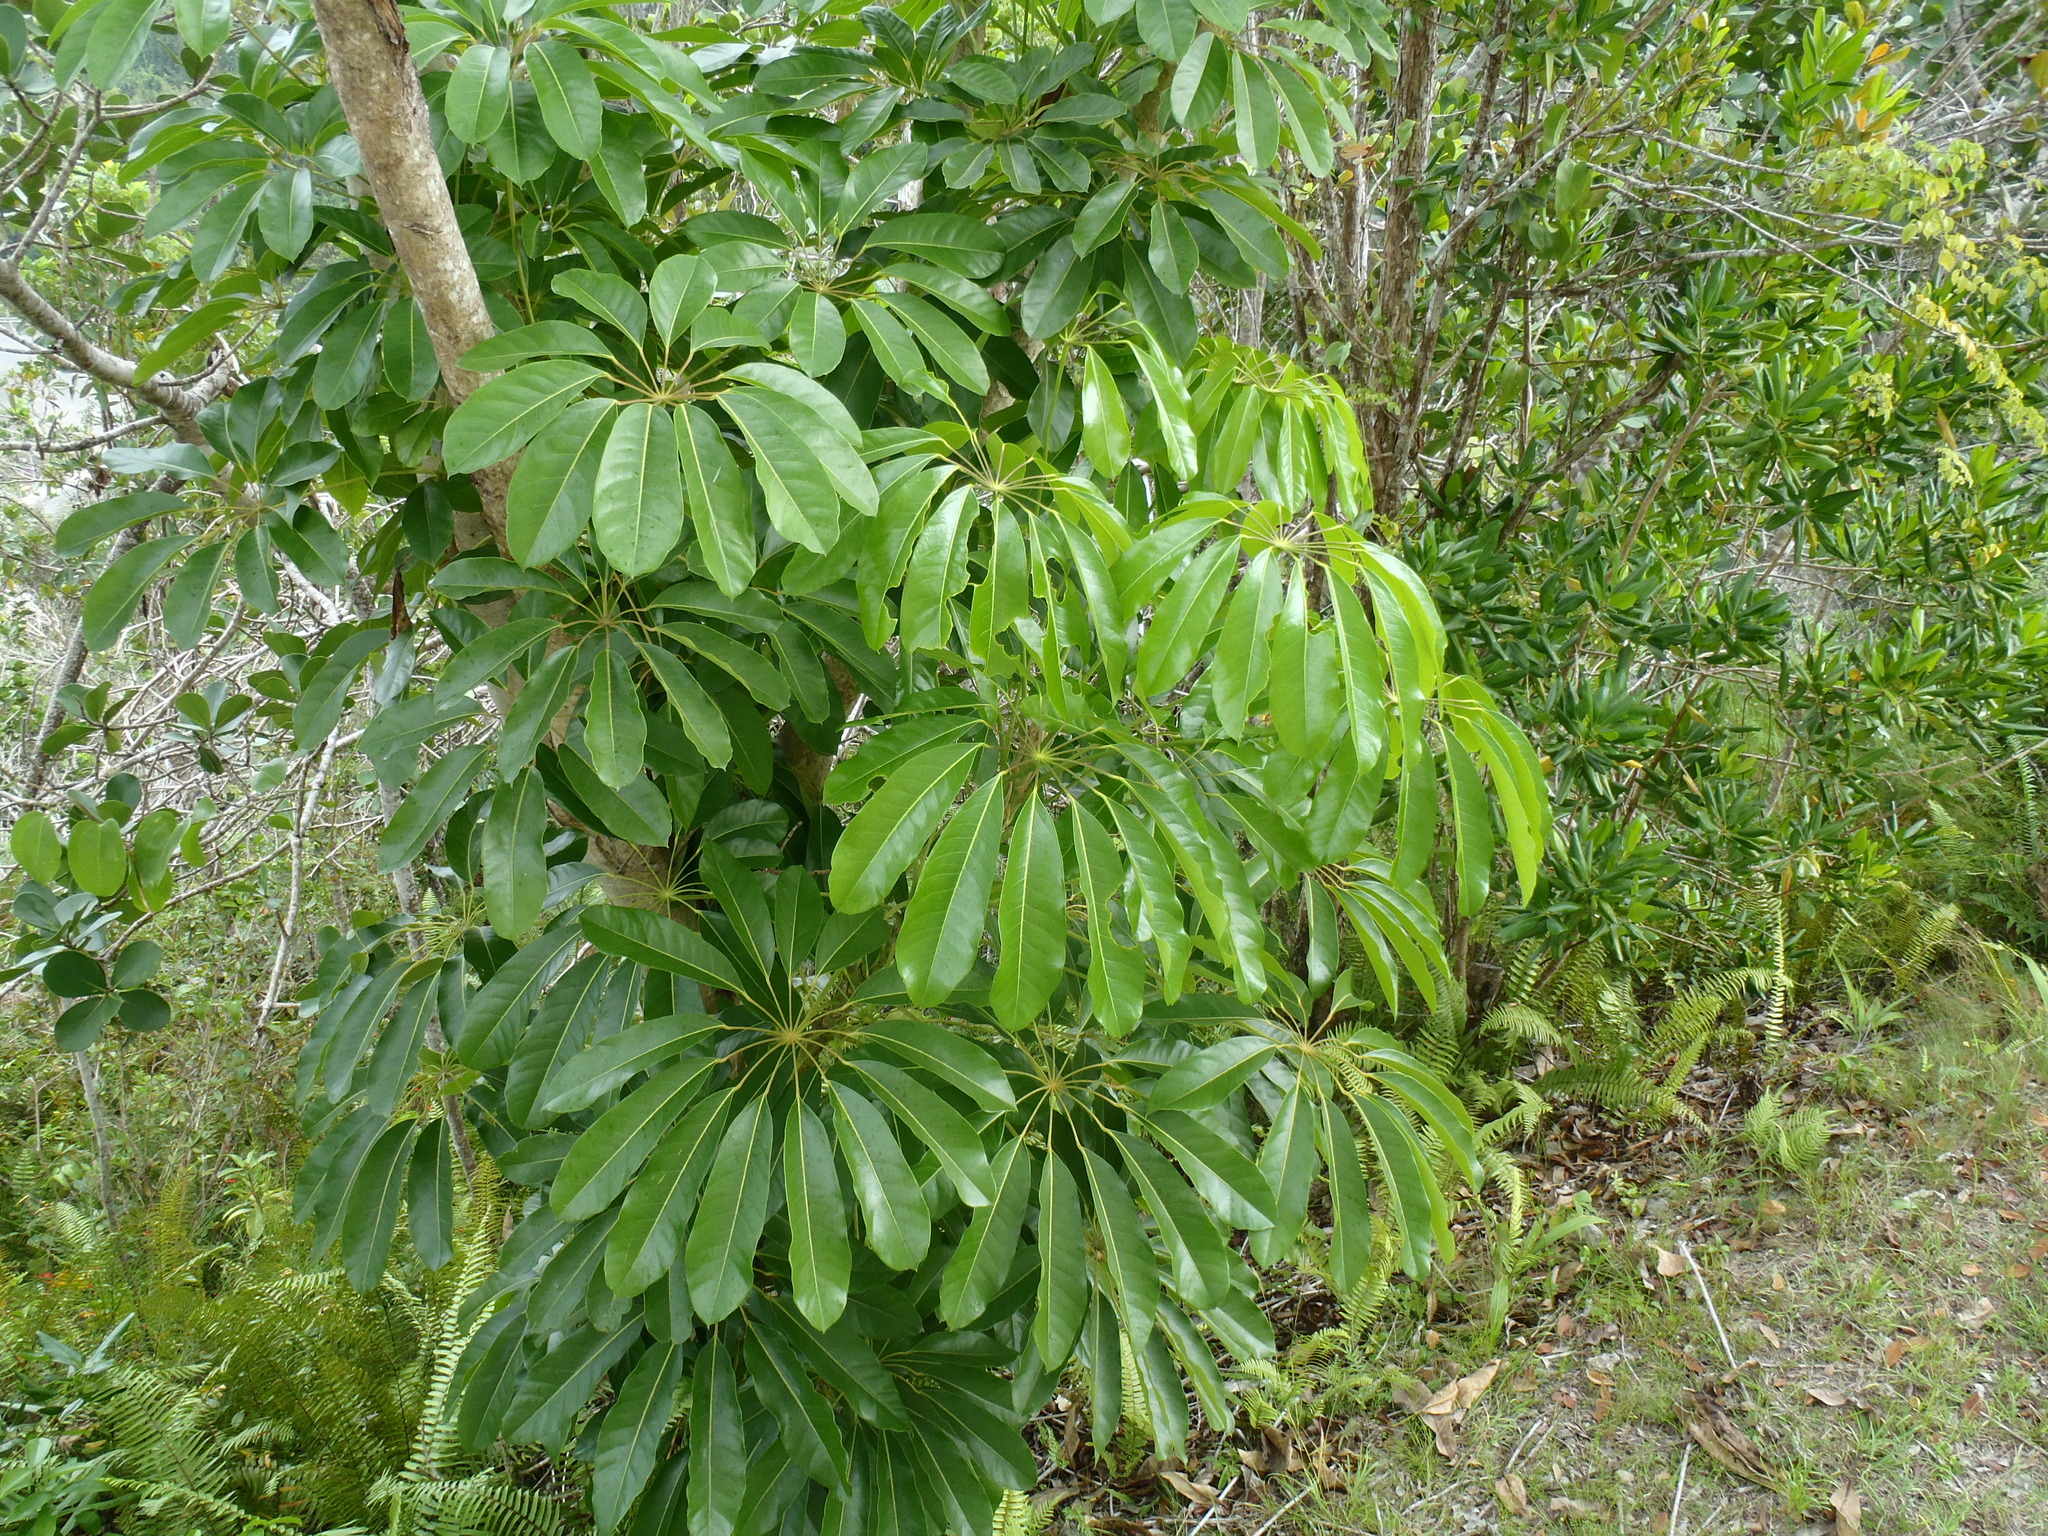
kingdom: Plantae
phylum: Tracheophyta
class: Magnoliopsida
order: Apiales
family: Araliaceae
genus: Heptapleurum
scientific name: Heptapleurum actinophyllum
